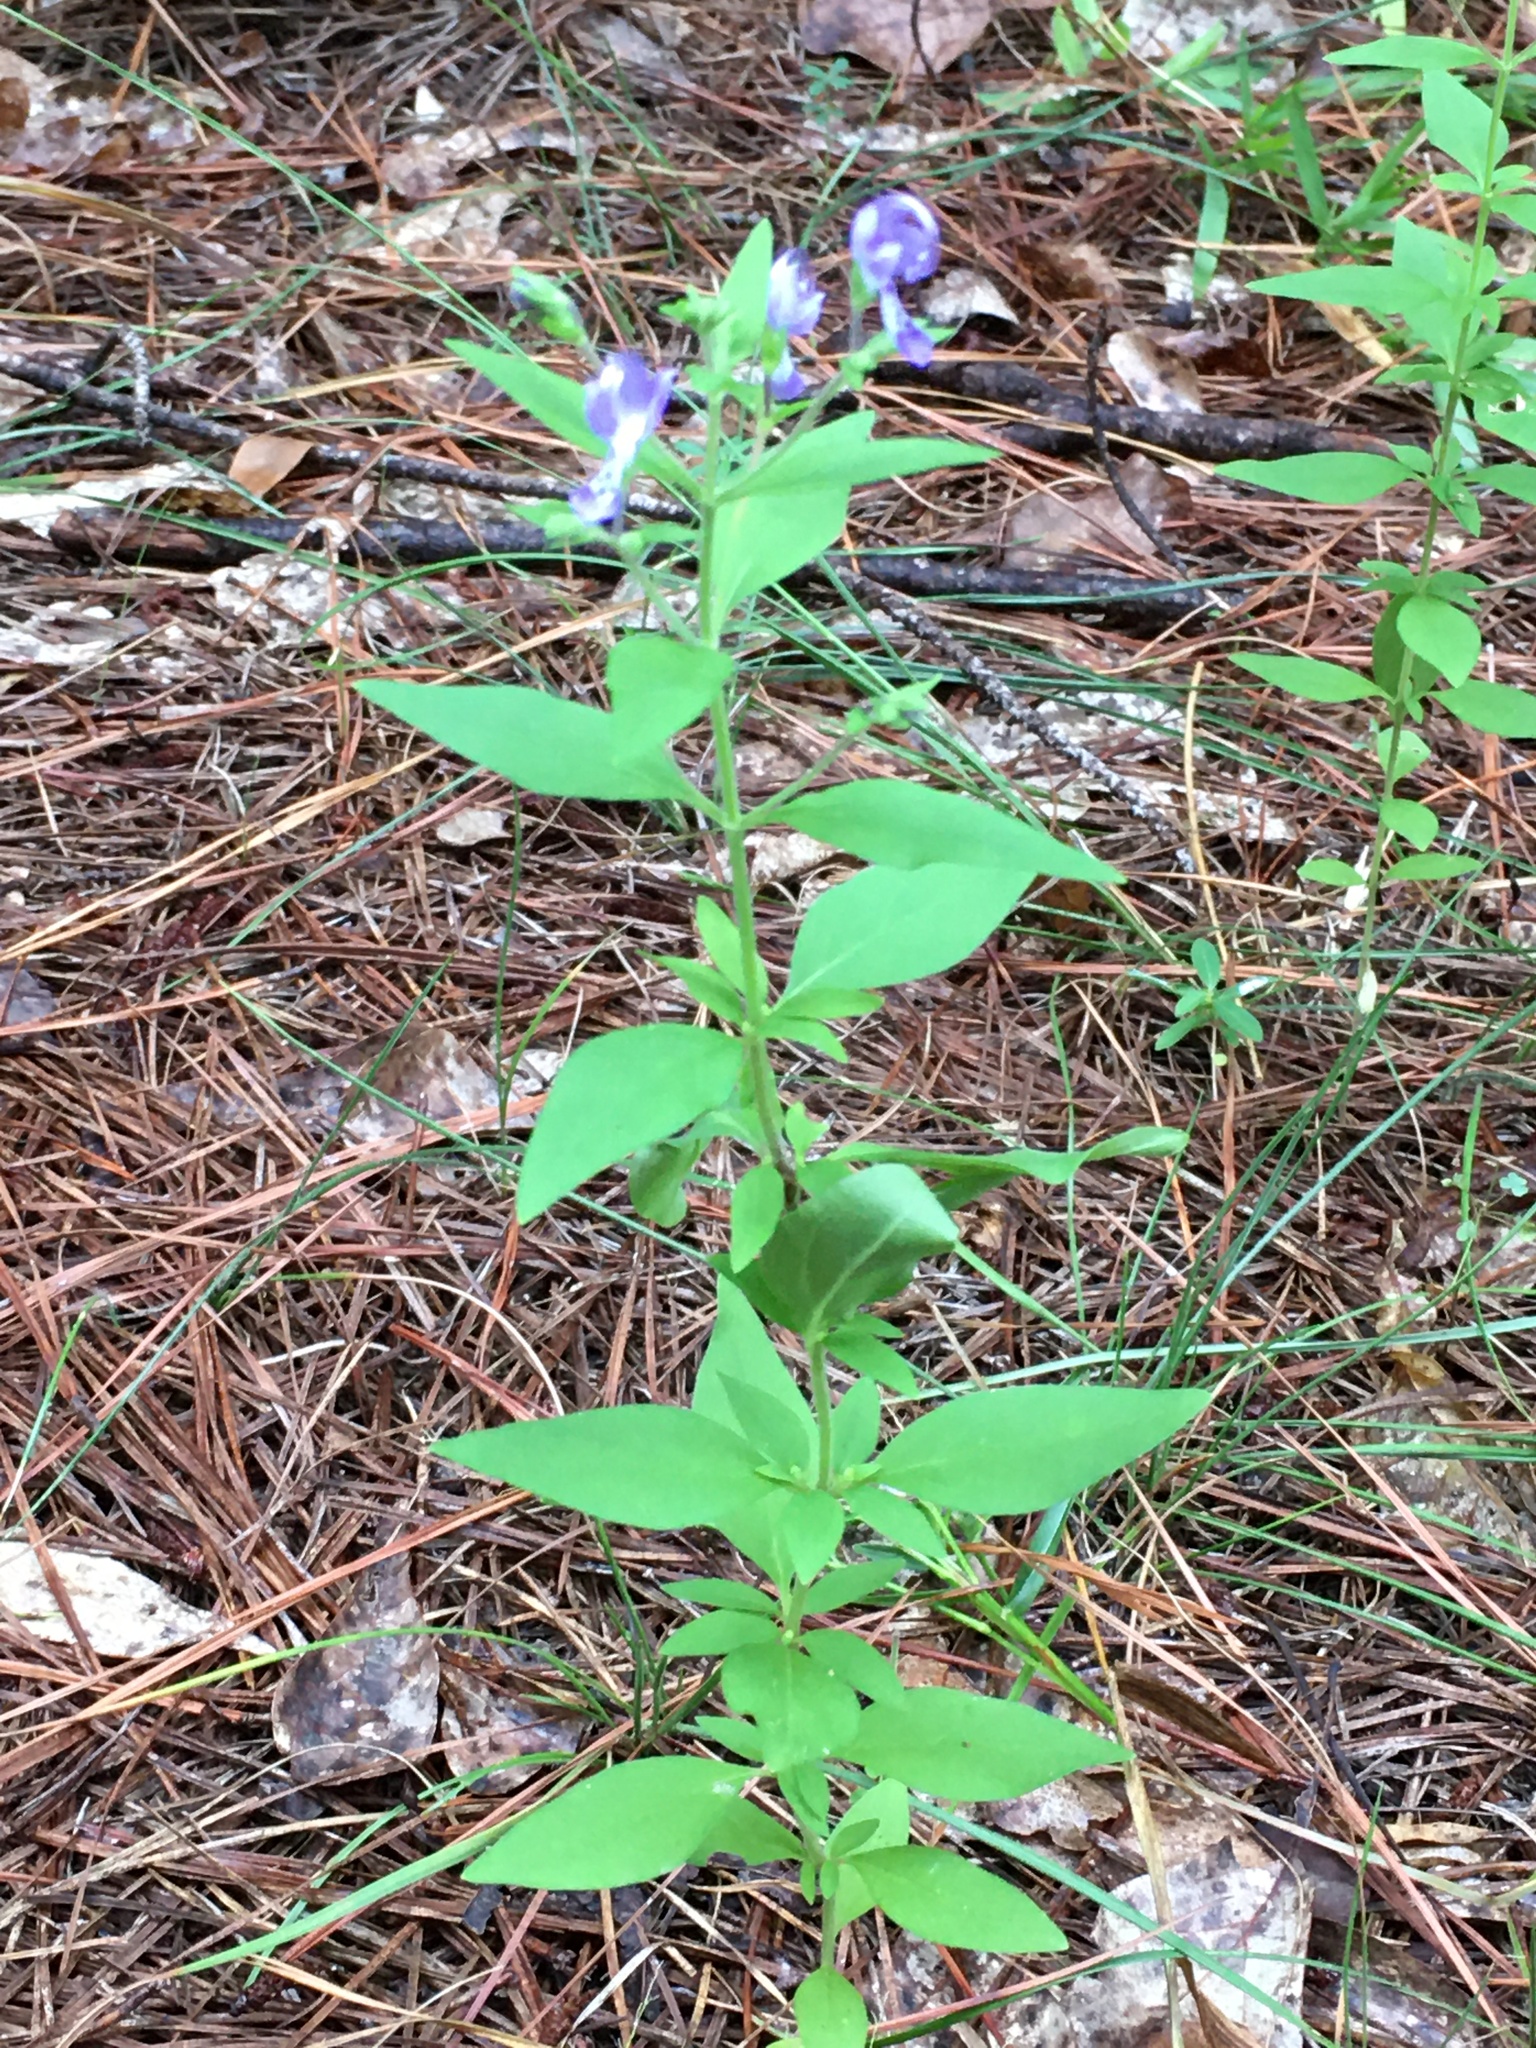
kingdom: Plantae
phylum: Tracheophyta
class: Magnoliopsida
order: Lamiales
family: Lamiaceae
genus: Trichostema
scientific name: Trichostema dichotomum
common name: Bastard pennyroyal
